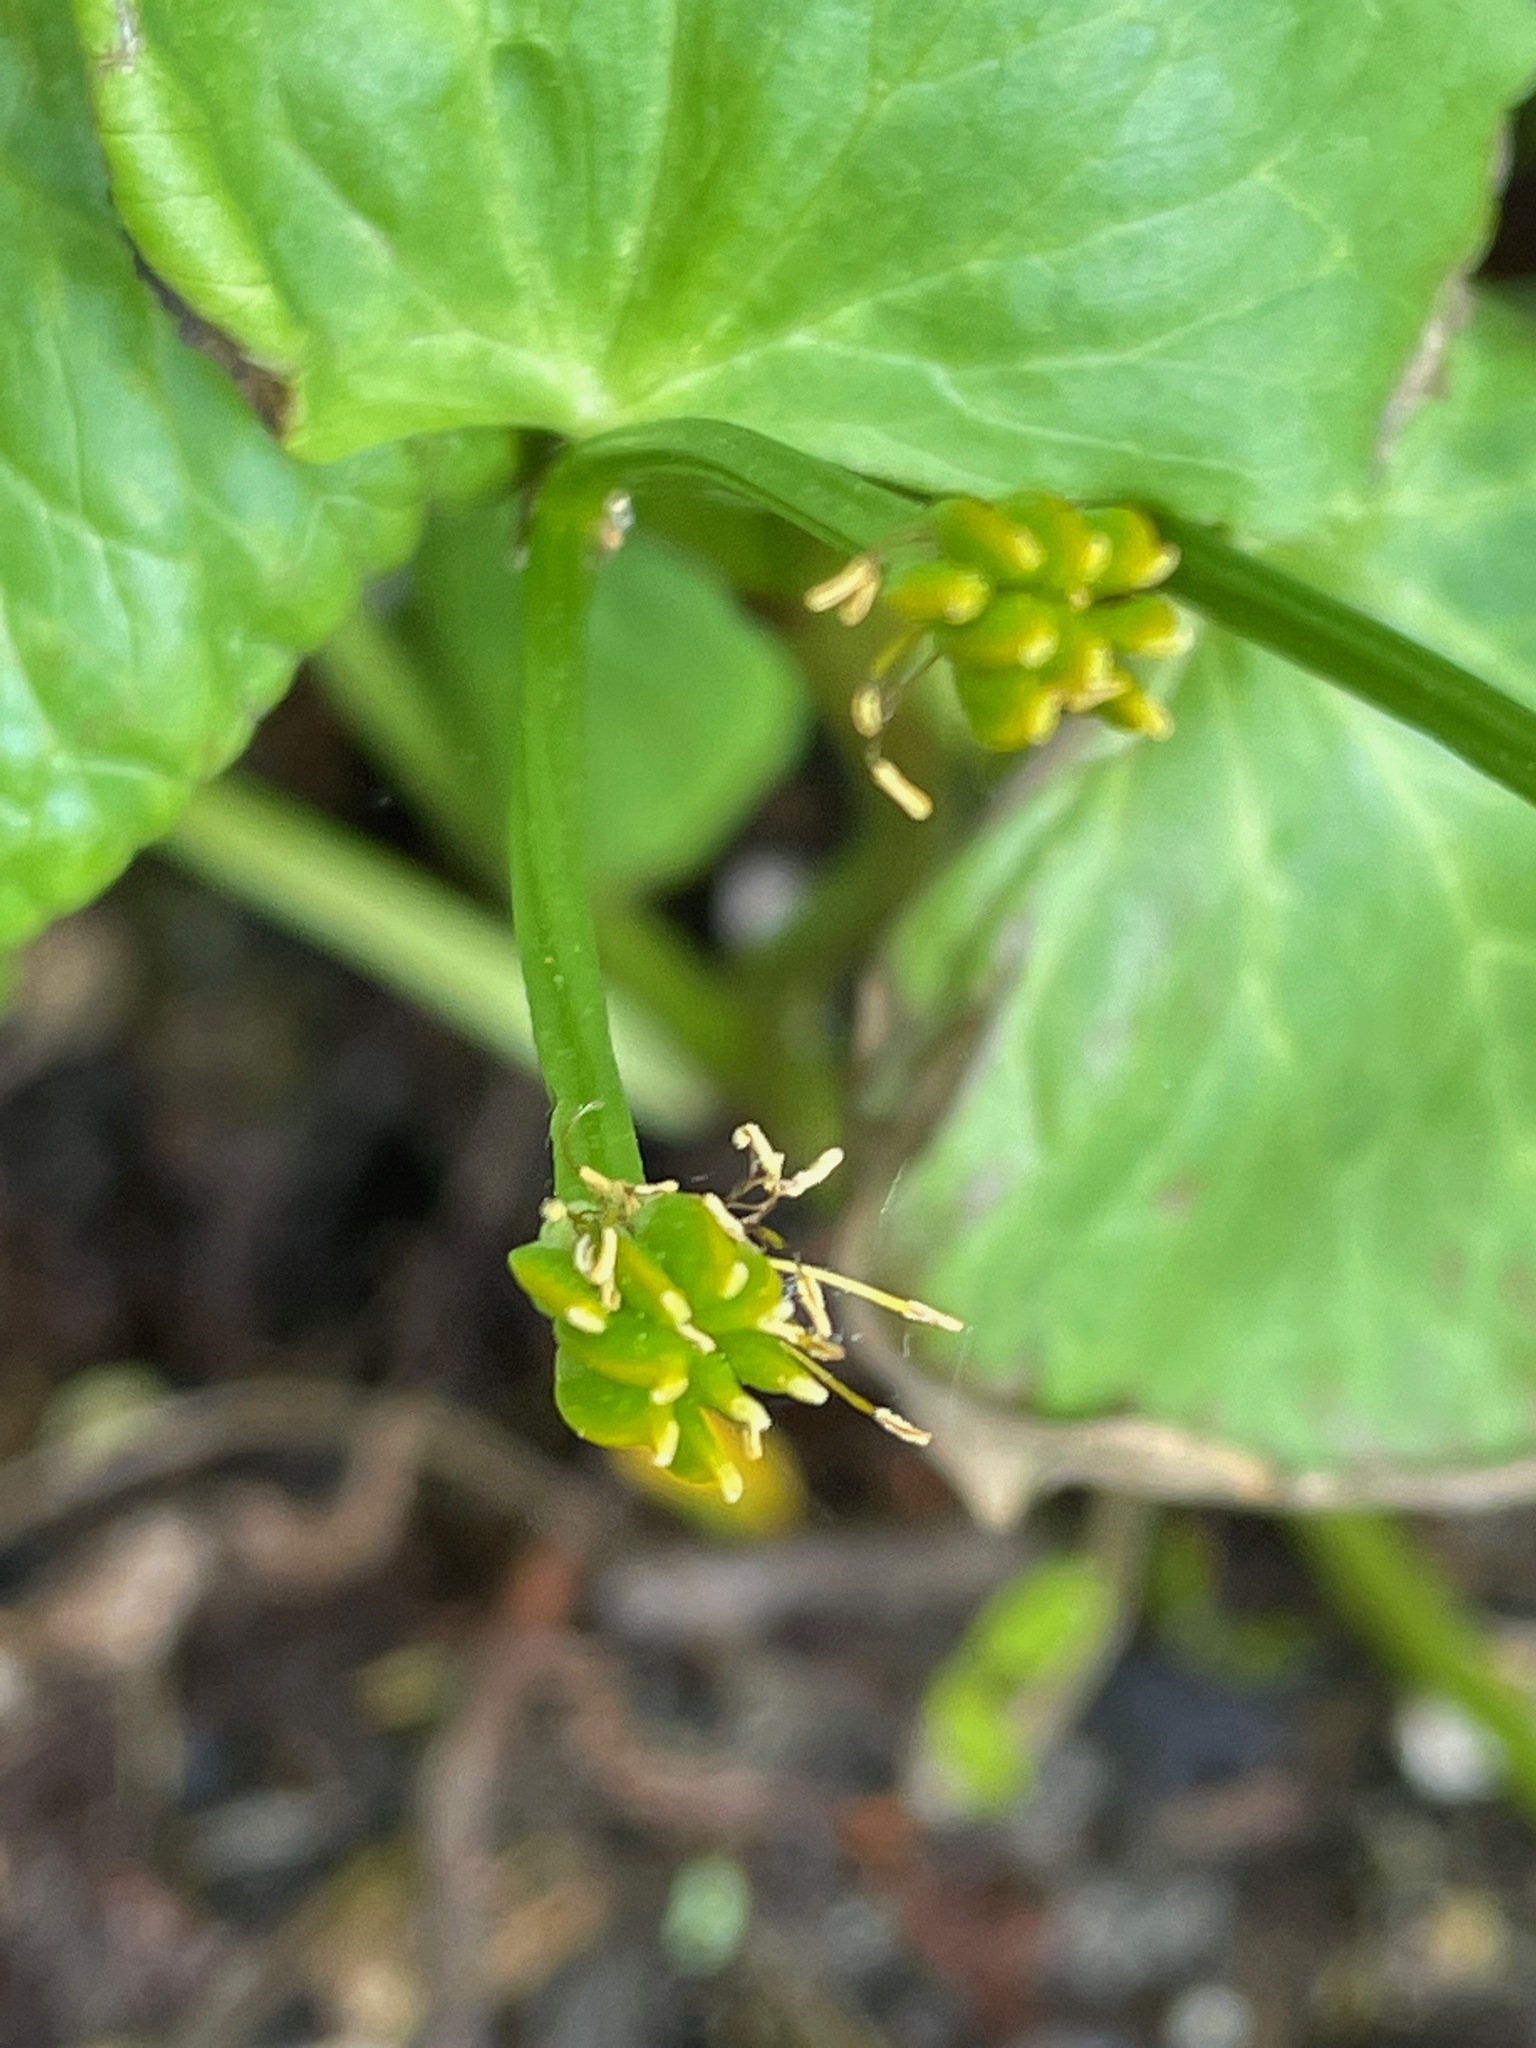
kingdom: Plantae
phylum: Tracheophyta
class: Magnoliopsida
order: Ranunculales
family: Ranunculaceae
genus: Caltha
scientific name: Caltha palustris
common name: Marsh marigold
